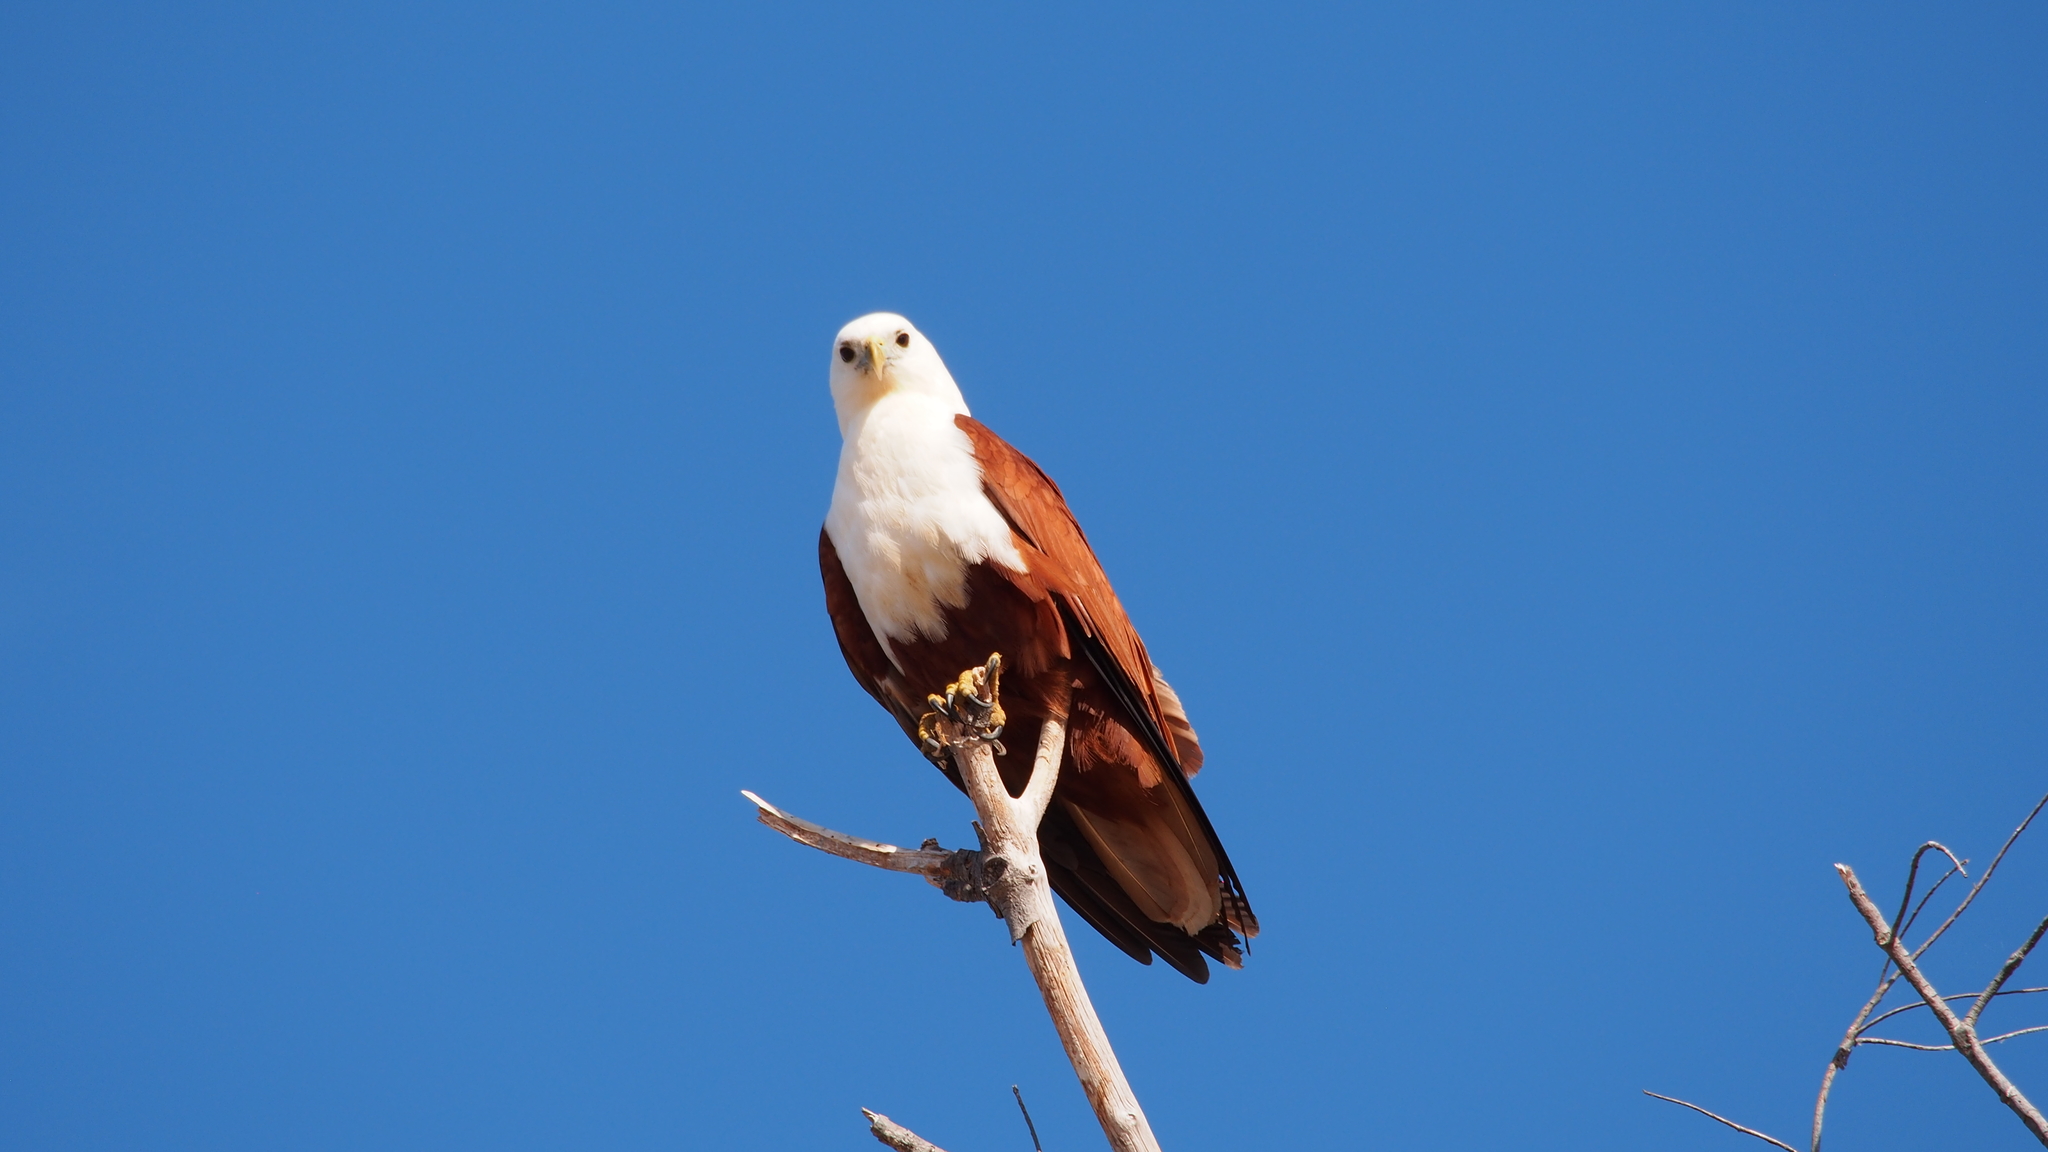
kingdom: Animalia
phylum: Chordata
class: Aves
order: Accipitriformes
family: Accipitridae
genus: Haliastur
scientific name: Haliastur indus
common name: Brahminy kite
